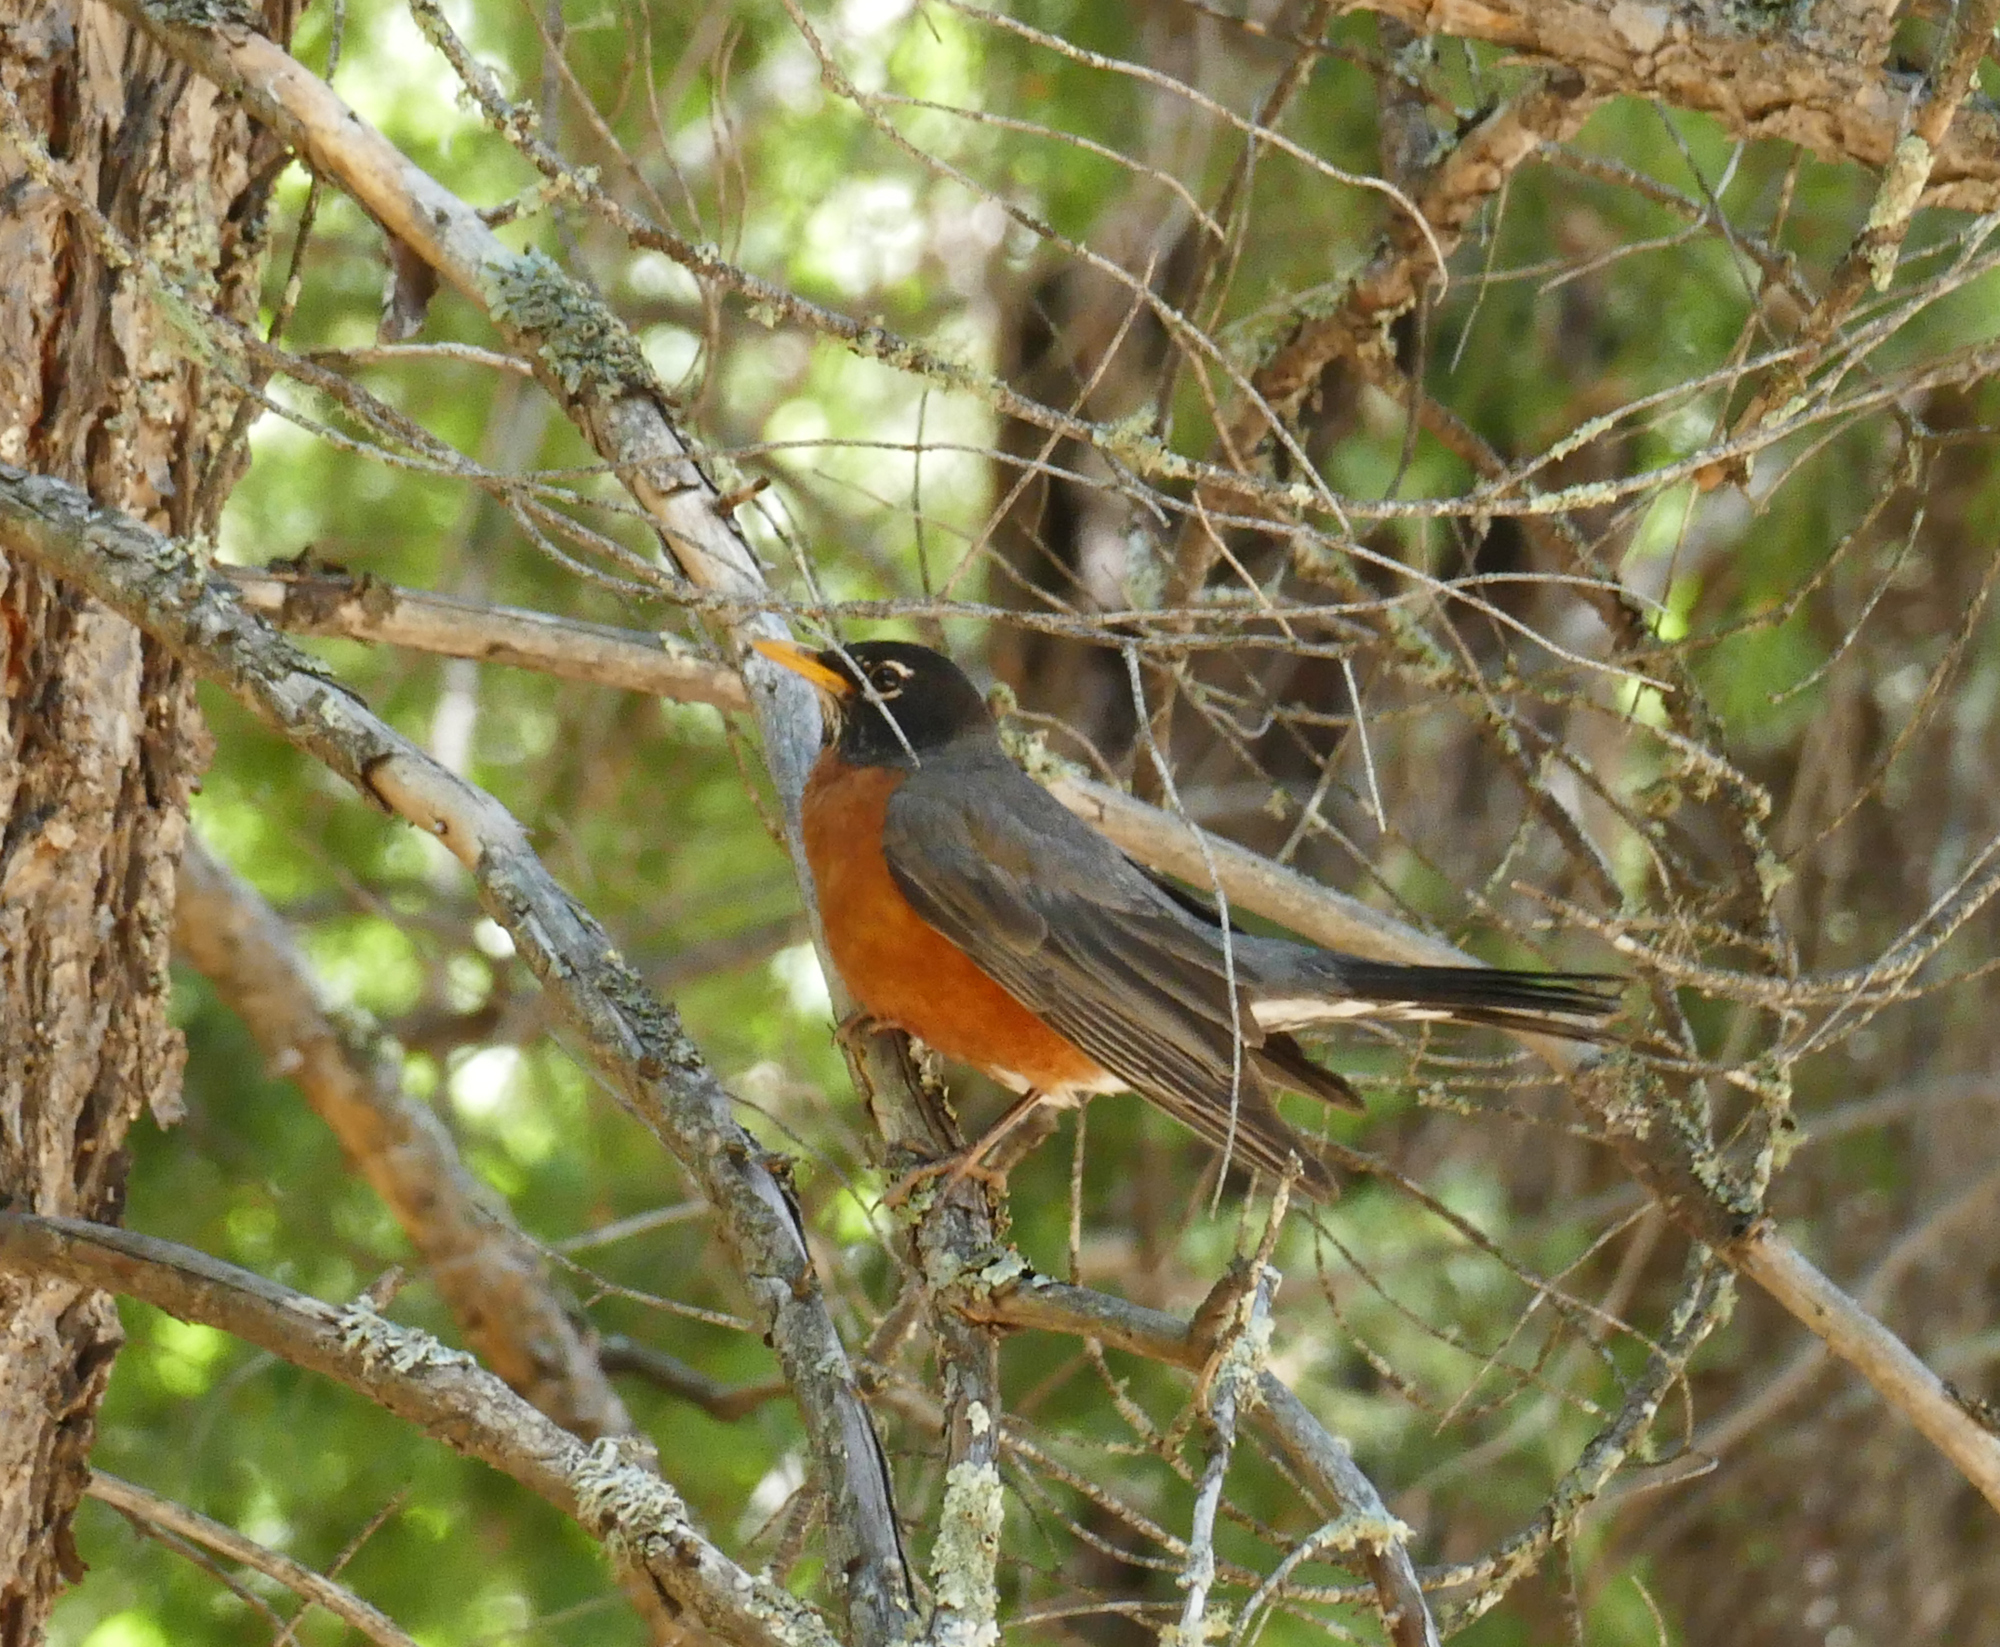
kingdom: Animalia
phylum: Chordata
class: Aves
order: Passeriformes
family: Turdidae
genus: Turdus
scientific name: Turdus migratorius
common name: American robin
